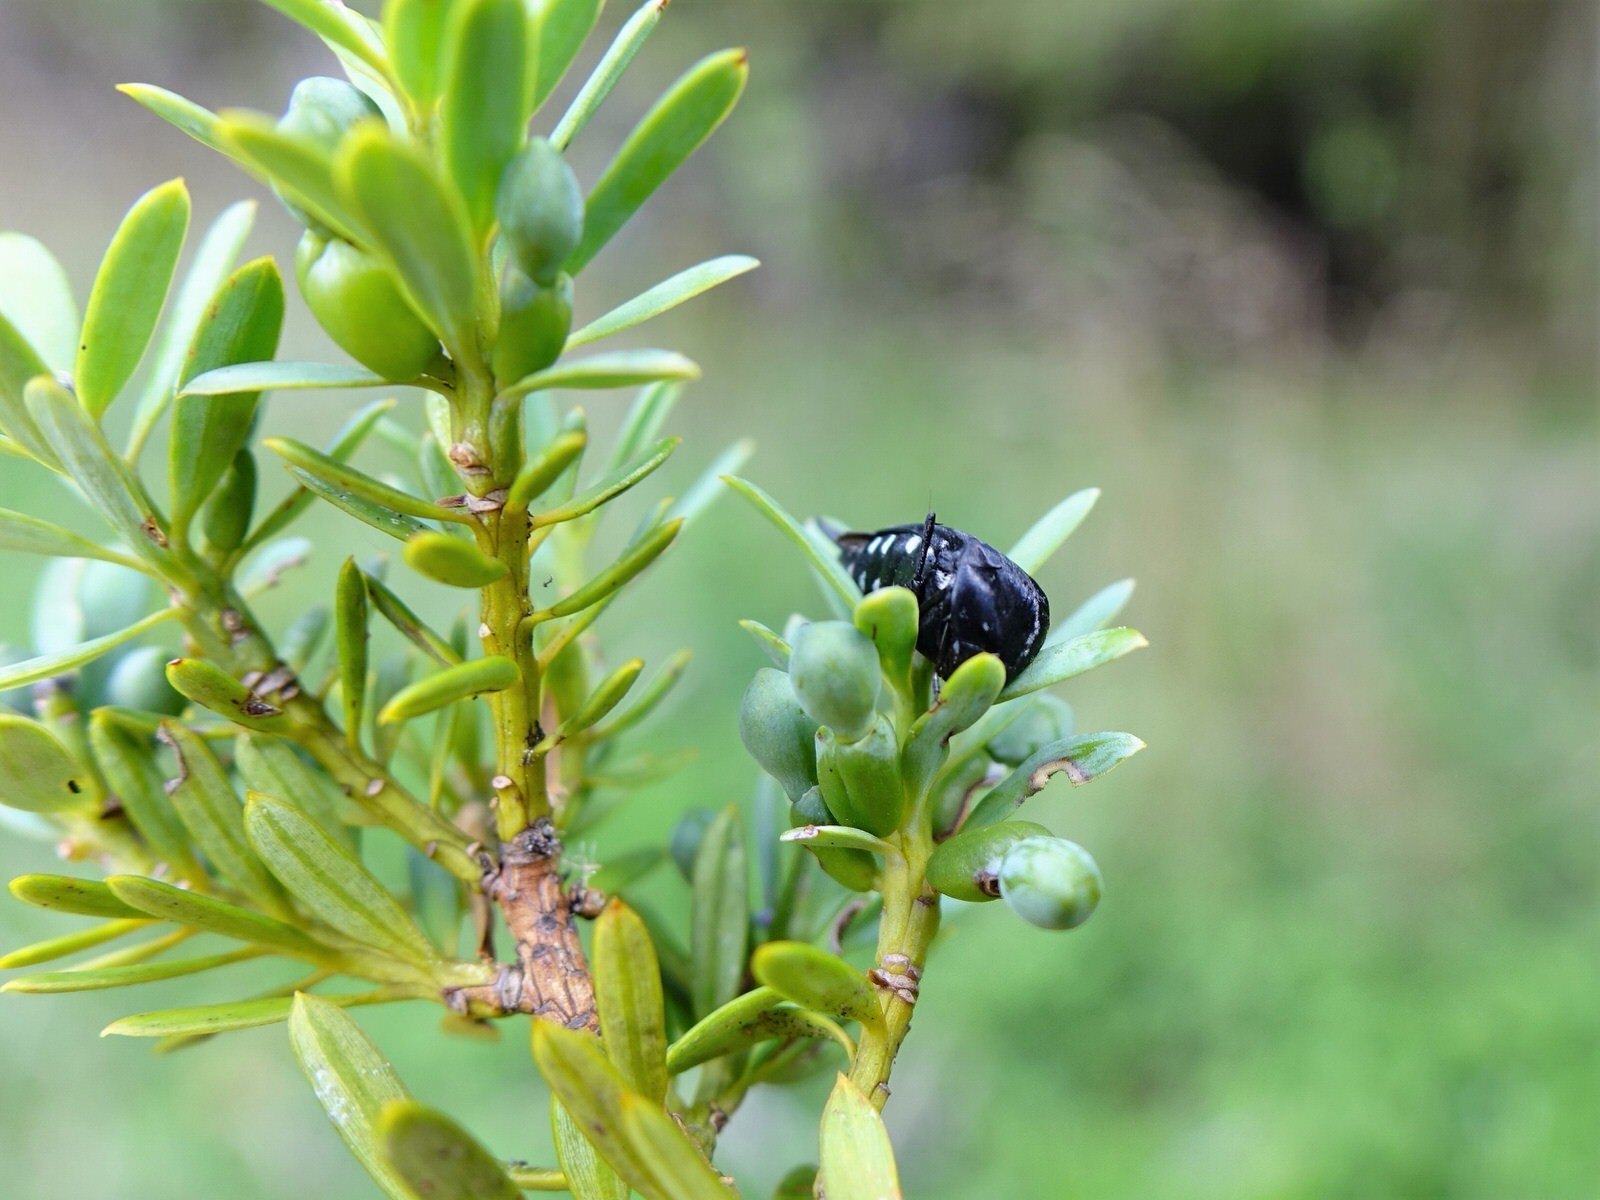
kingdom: Animalia
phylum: Arthropoda
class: Insecta
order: Coleoptera
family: Mordellidae
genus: Hoshihananomia
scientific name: Hoshihananomia
